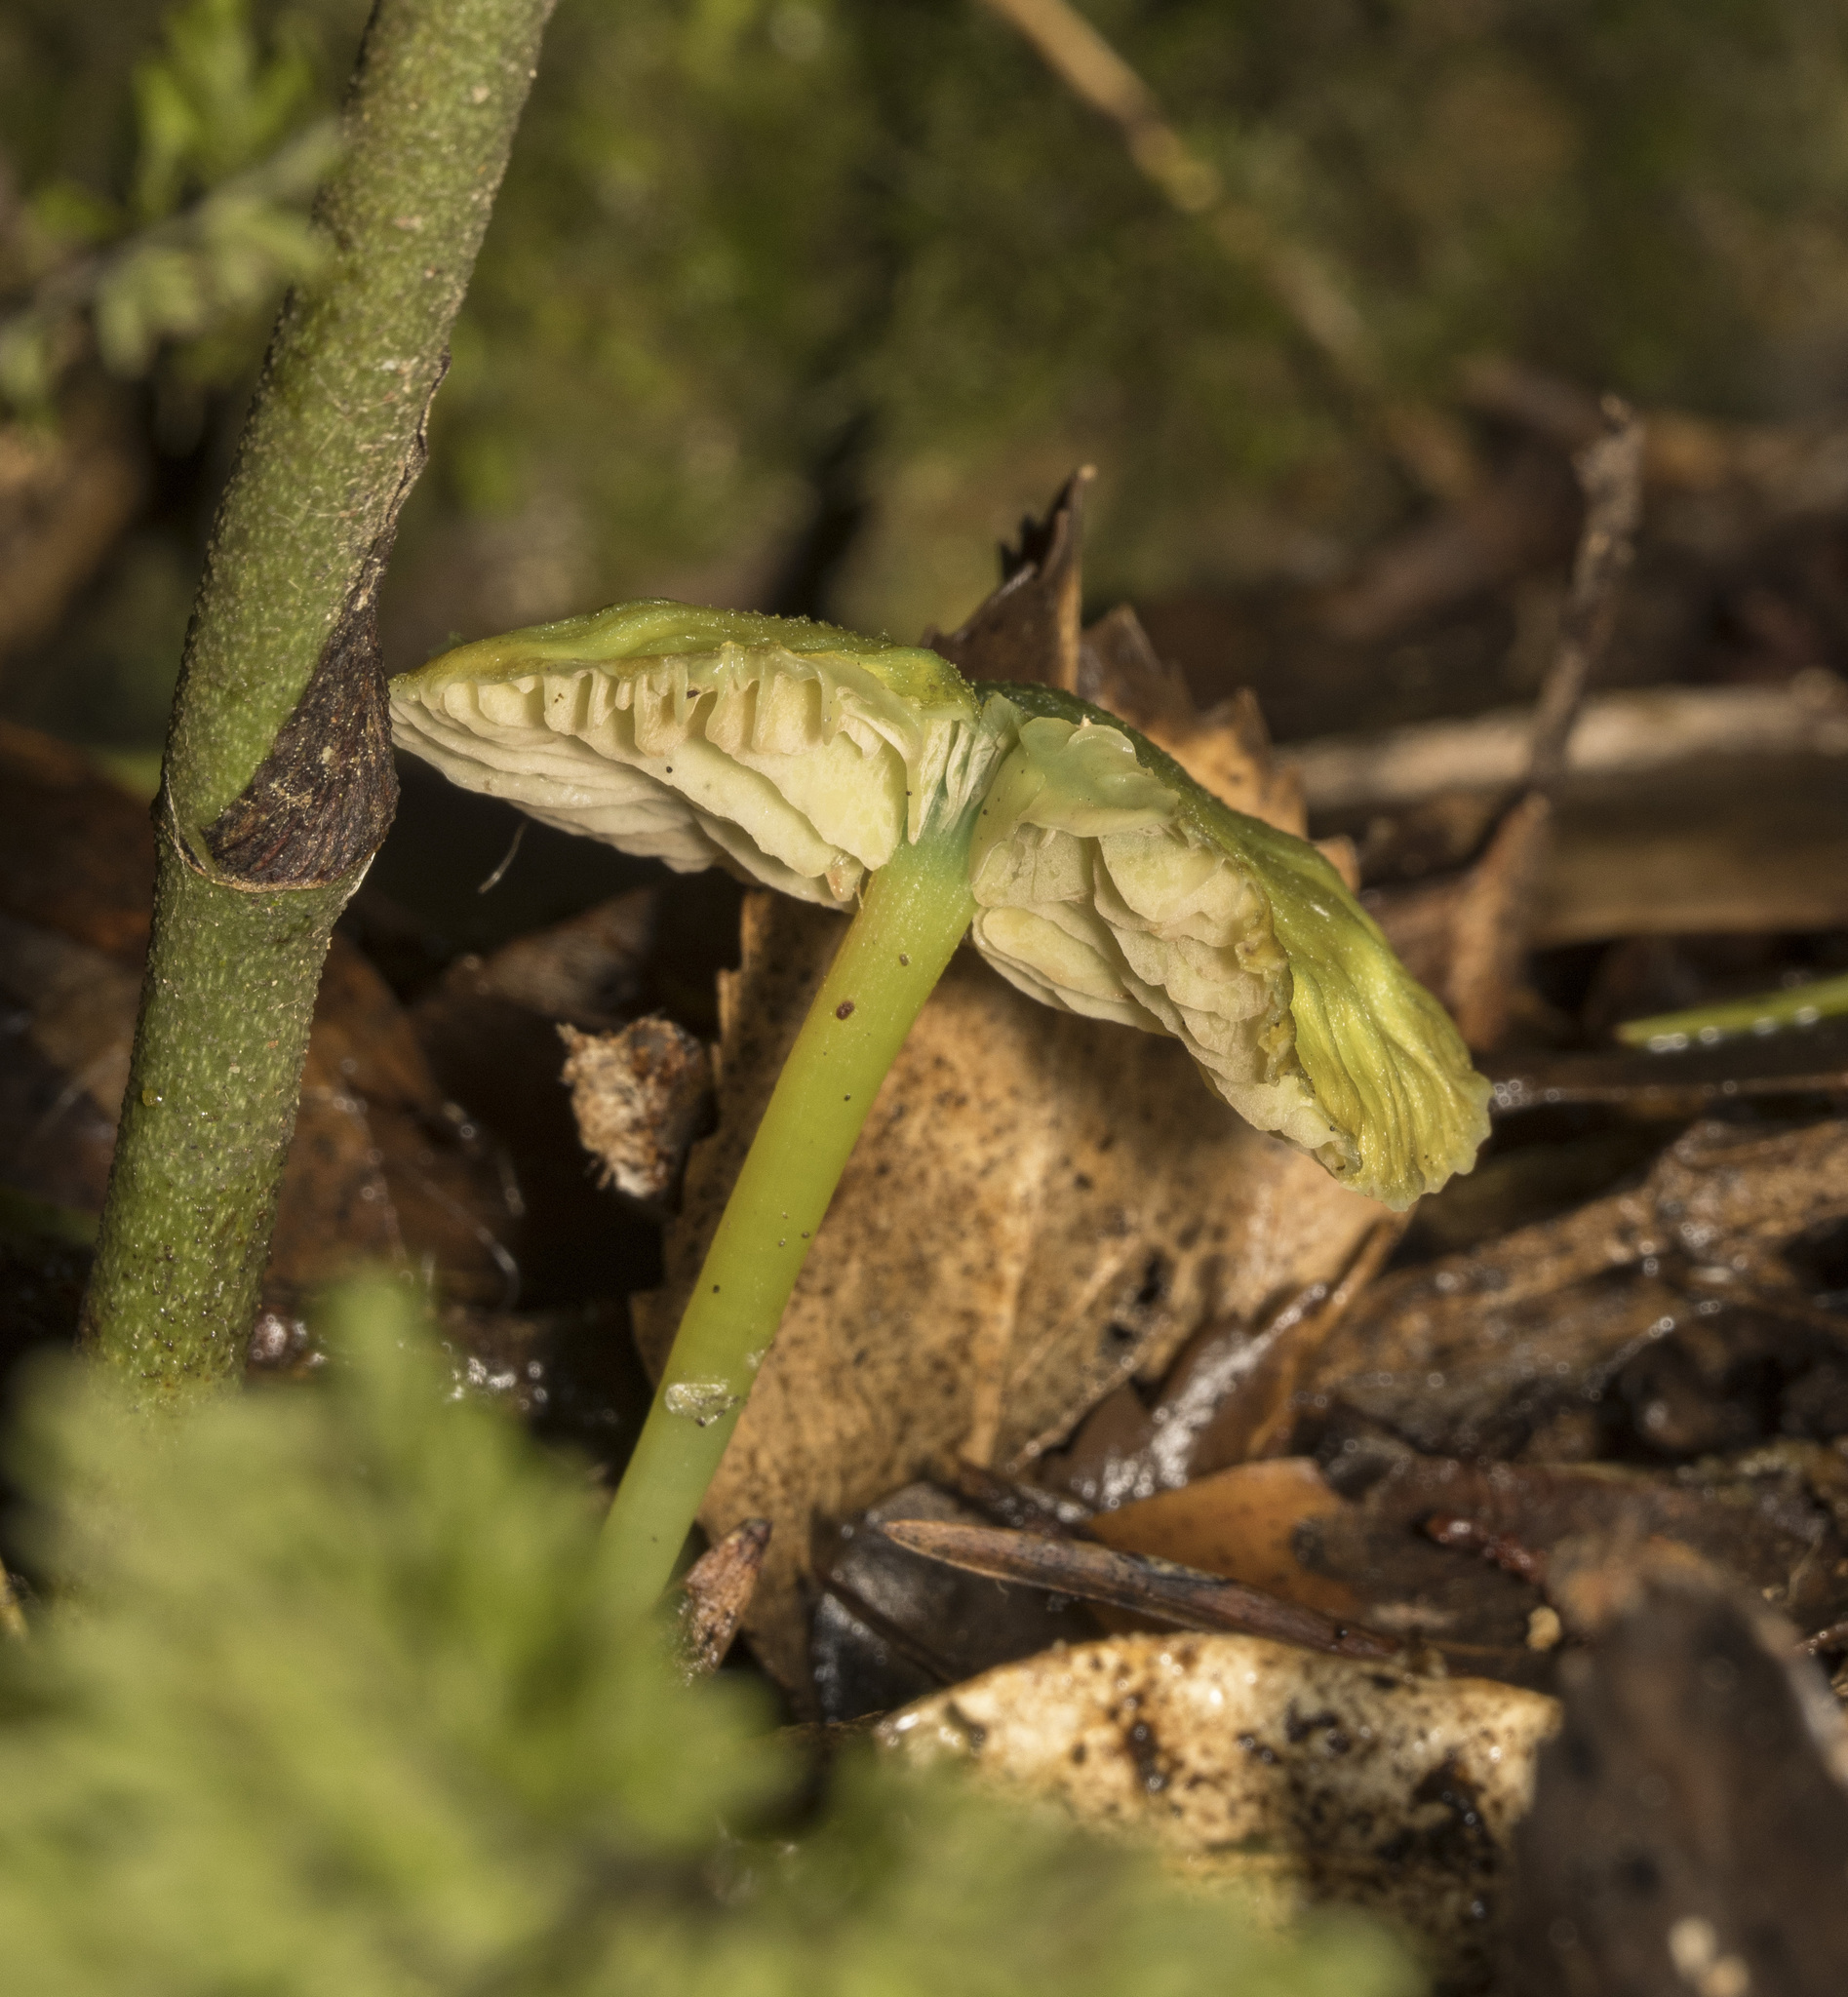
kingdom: Fungi
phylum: Basidiomycota
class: Agaricomycetes
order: Agaricales
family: Entolomataceae
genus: Entoloma
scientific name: Entoloma necopinatum
